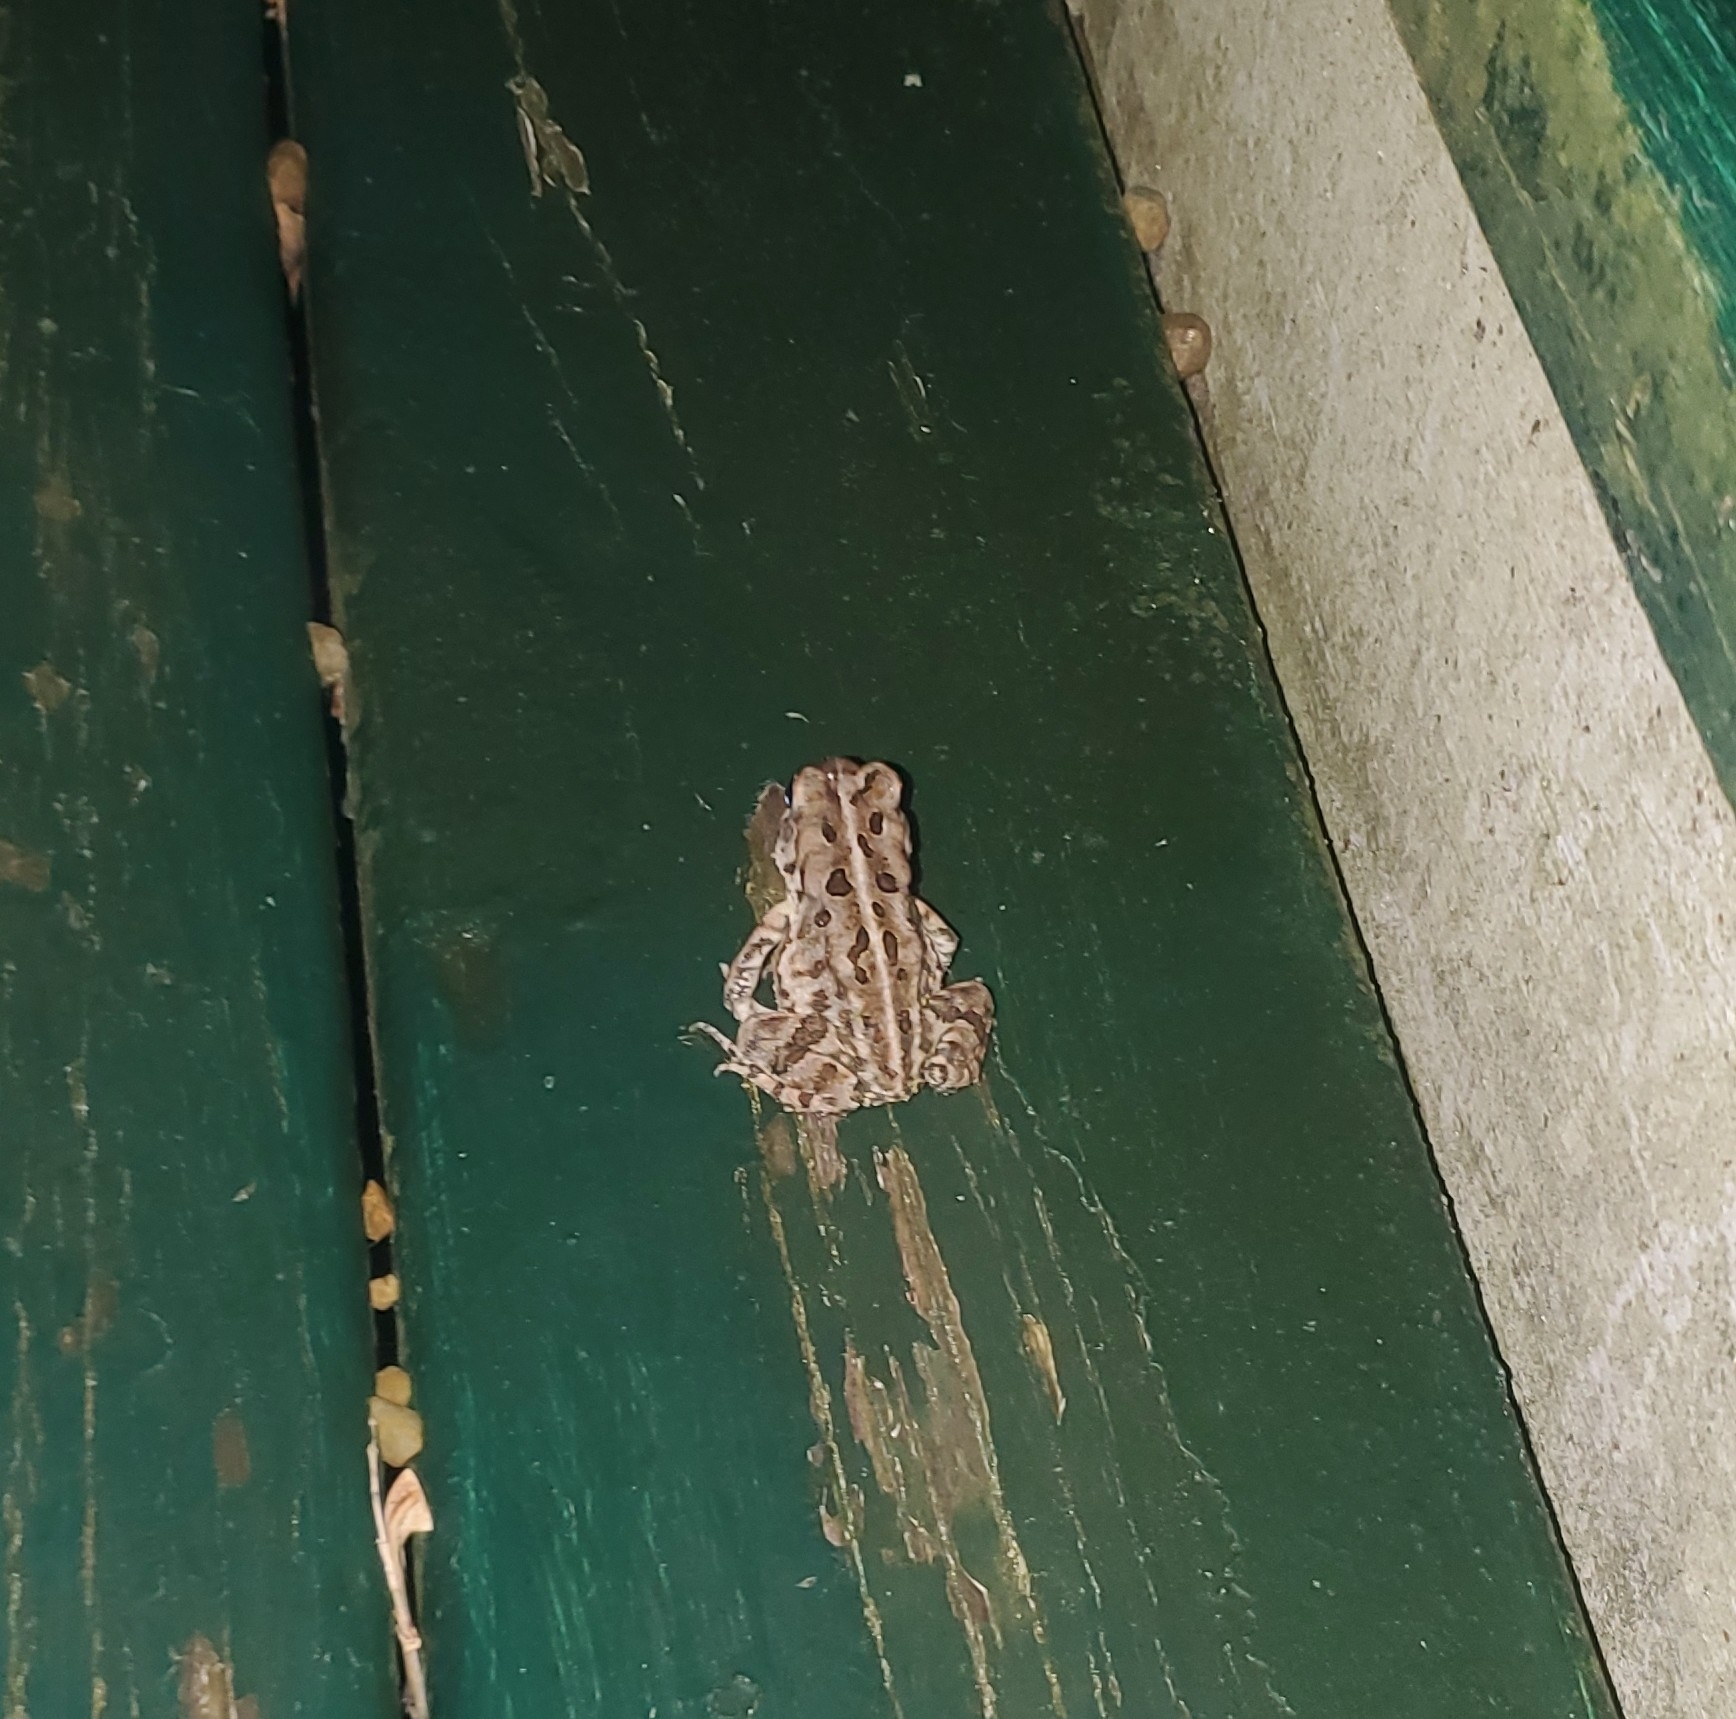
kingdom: Animalia
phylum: Chordata
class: Amphibia
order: Anura
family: Bufonidae
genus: Anaxyrus
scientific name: Anaxyrus fowleri
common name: Fowler's toad
